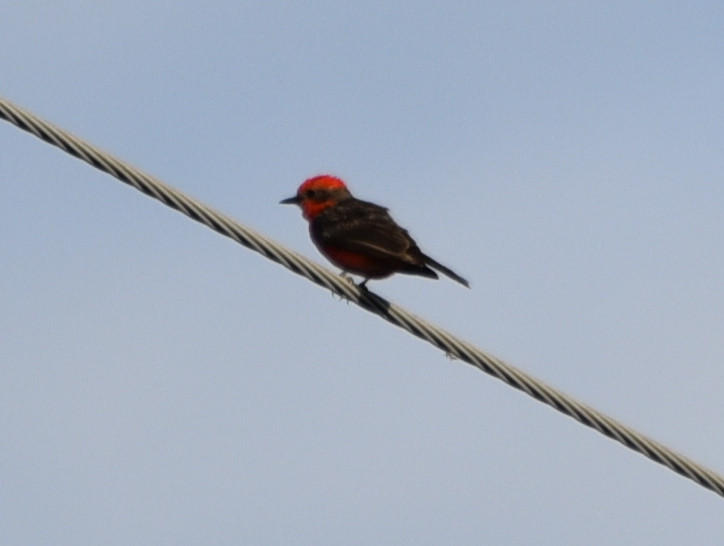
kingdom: Animalia
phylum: Chordata
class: Aves
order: Passeriformes
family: Tyrannidae
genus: Pyrocephalus
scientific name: Pyrocephalus rubinus
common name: Vermilion flycatcher
